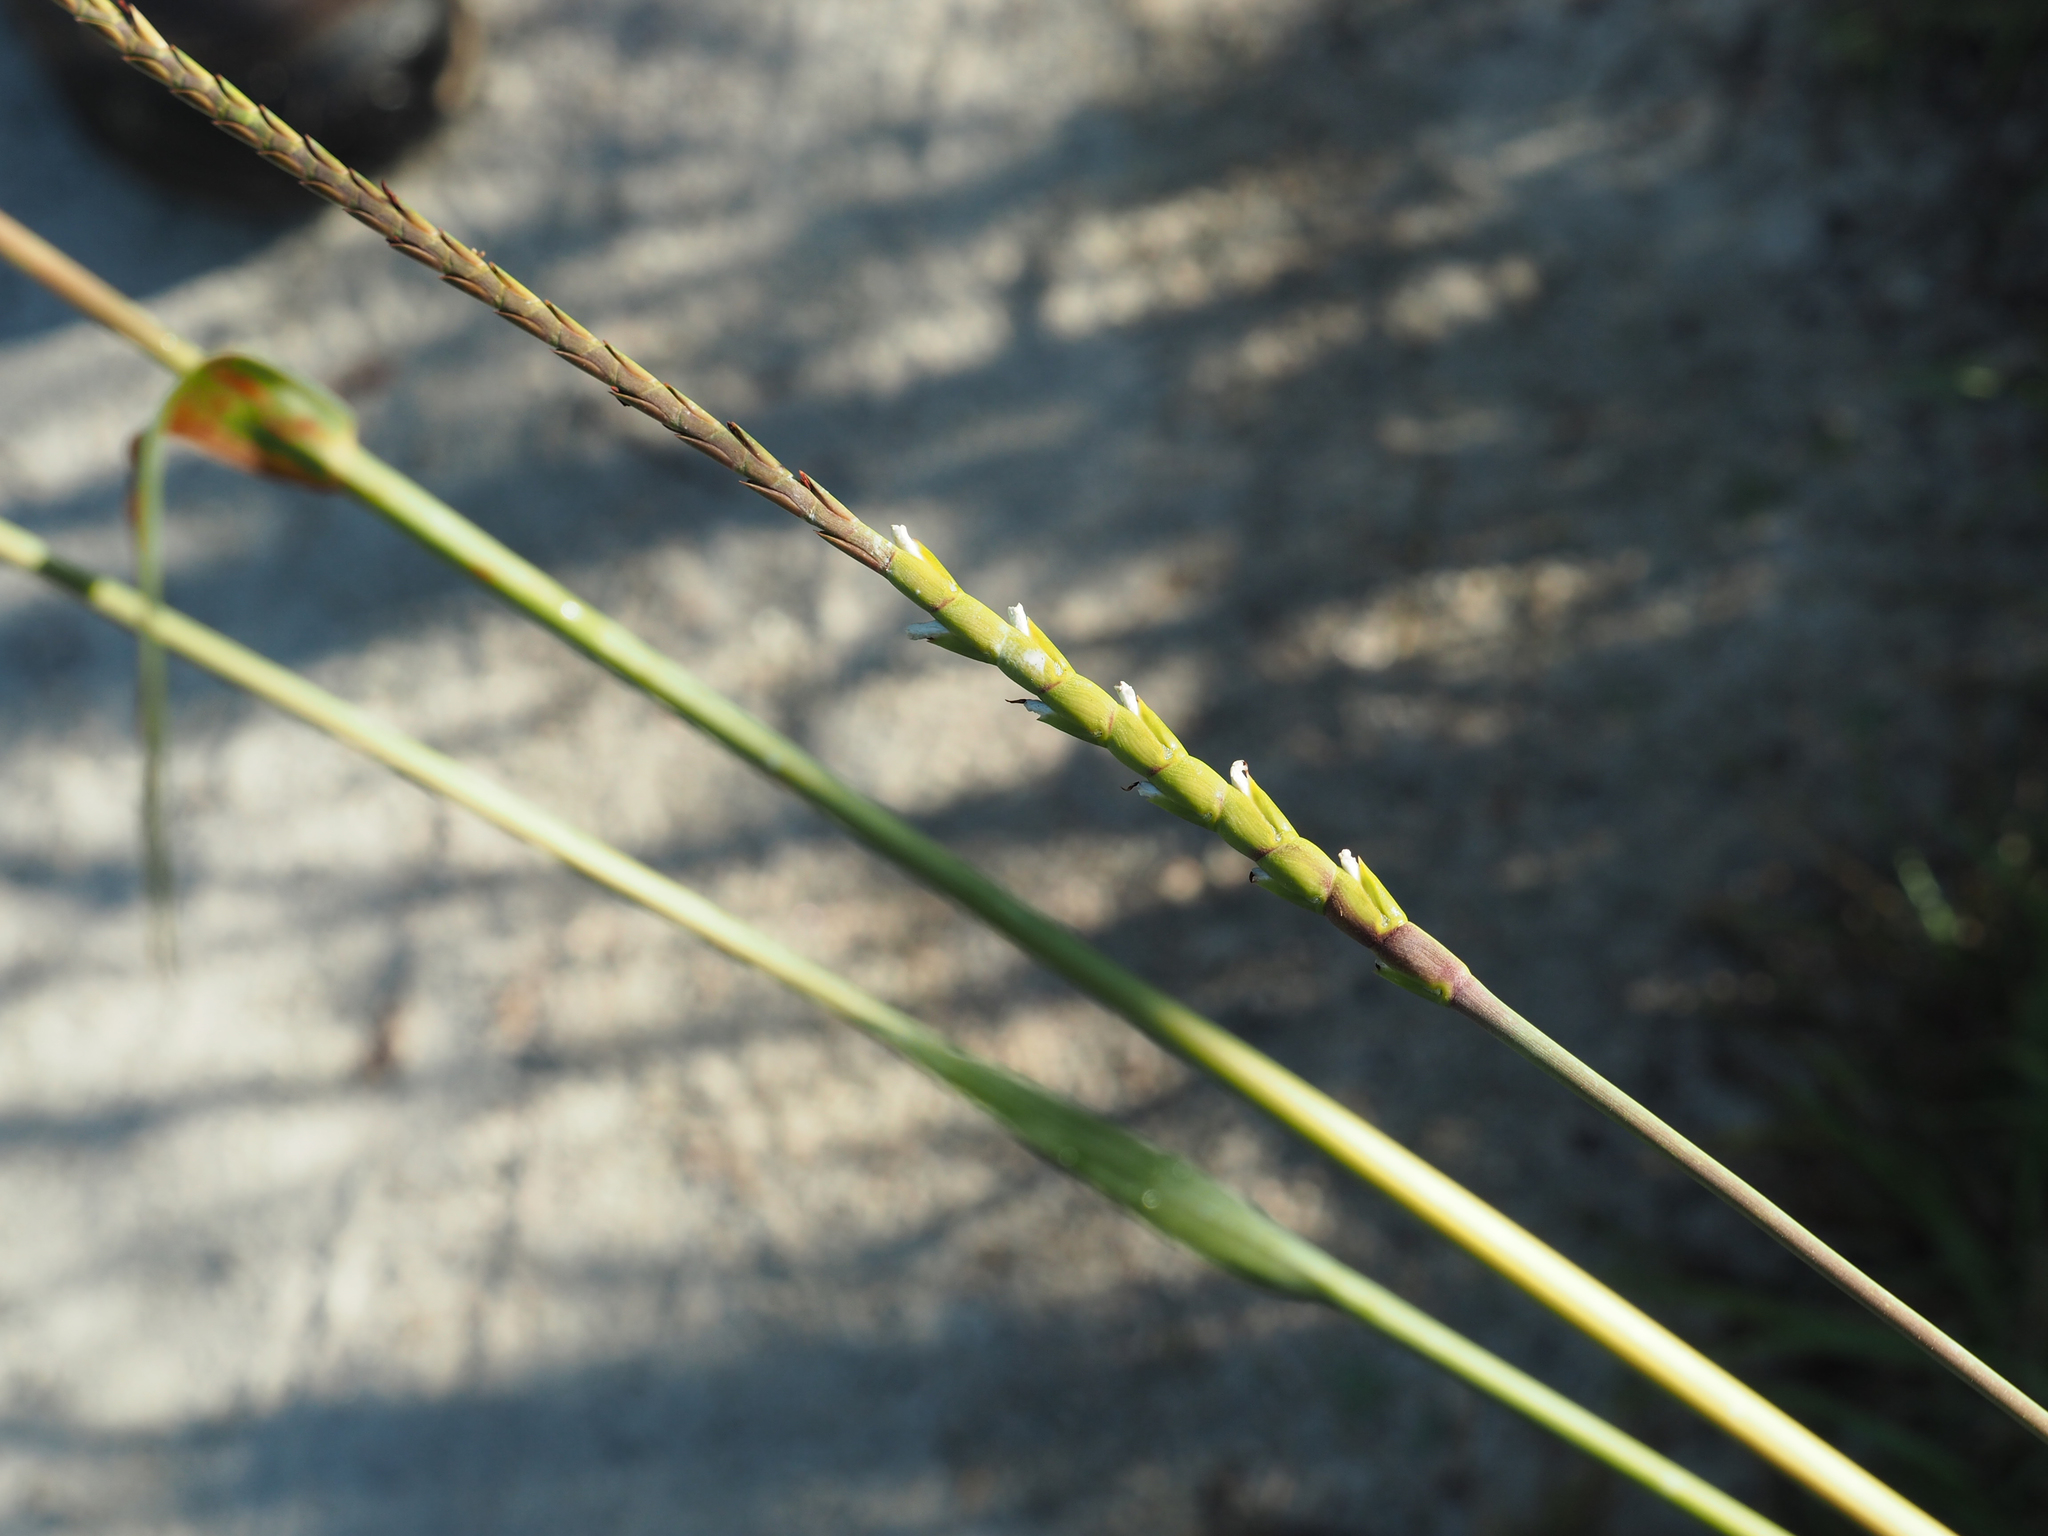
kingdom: Plantae
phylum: Tracheophyta
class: Liliopsida
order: Poales
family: Poaceae
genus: Tripsacum
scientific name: Tripsacum dactyloides
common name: Buffalo-grass
